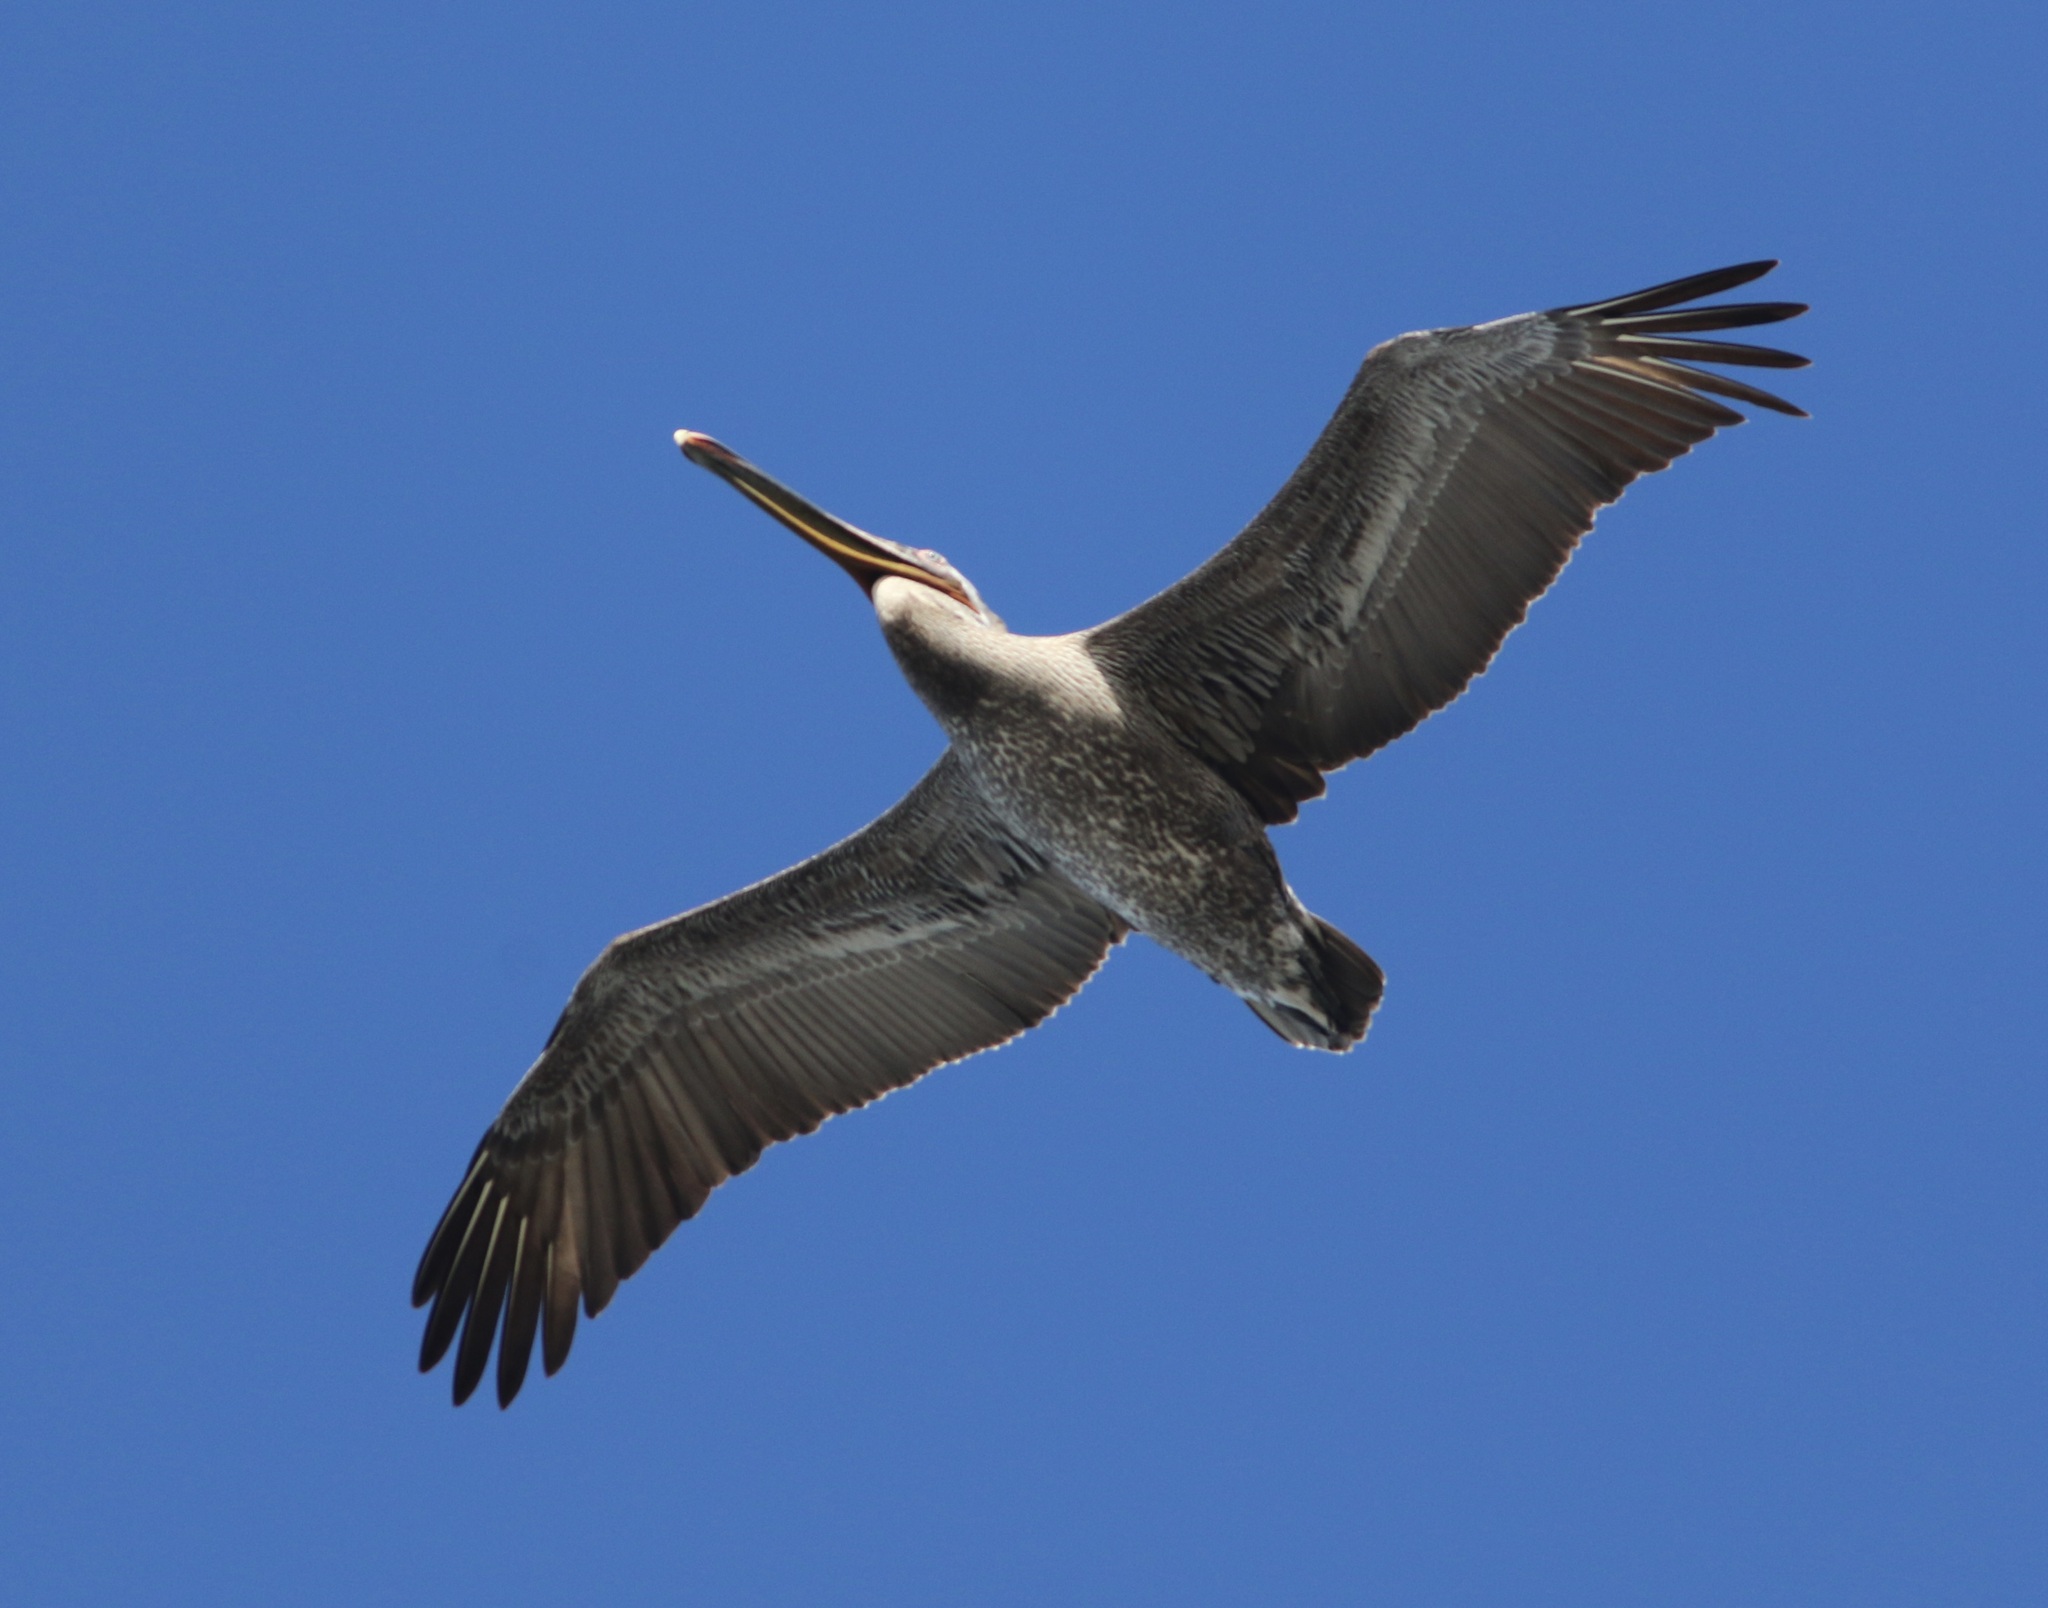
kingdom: Animalia
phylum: Chordata
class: Aves
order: Pelecaniformes
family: Pelecanidae
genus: Pelecanus
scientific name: Pelecanus occidentalis
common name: Brown pelican
